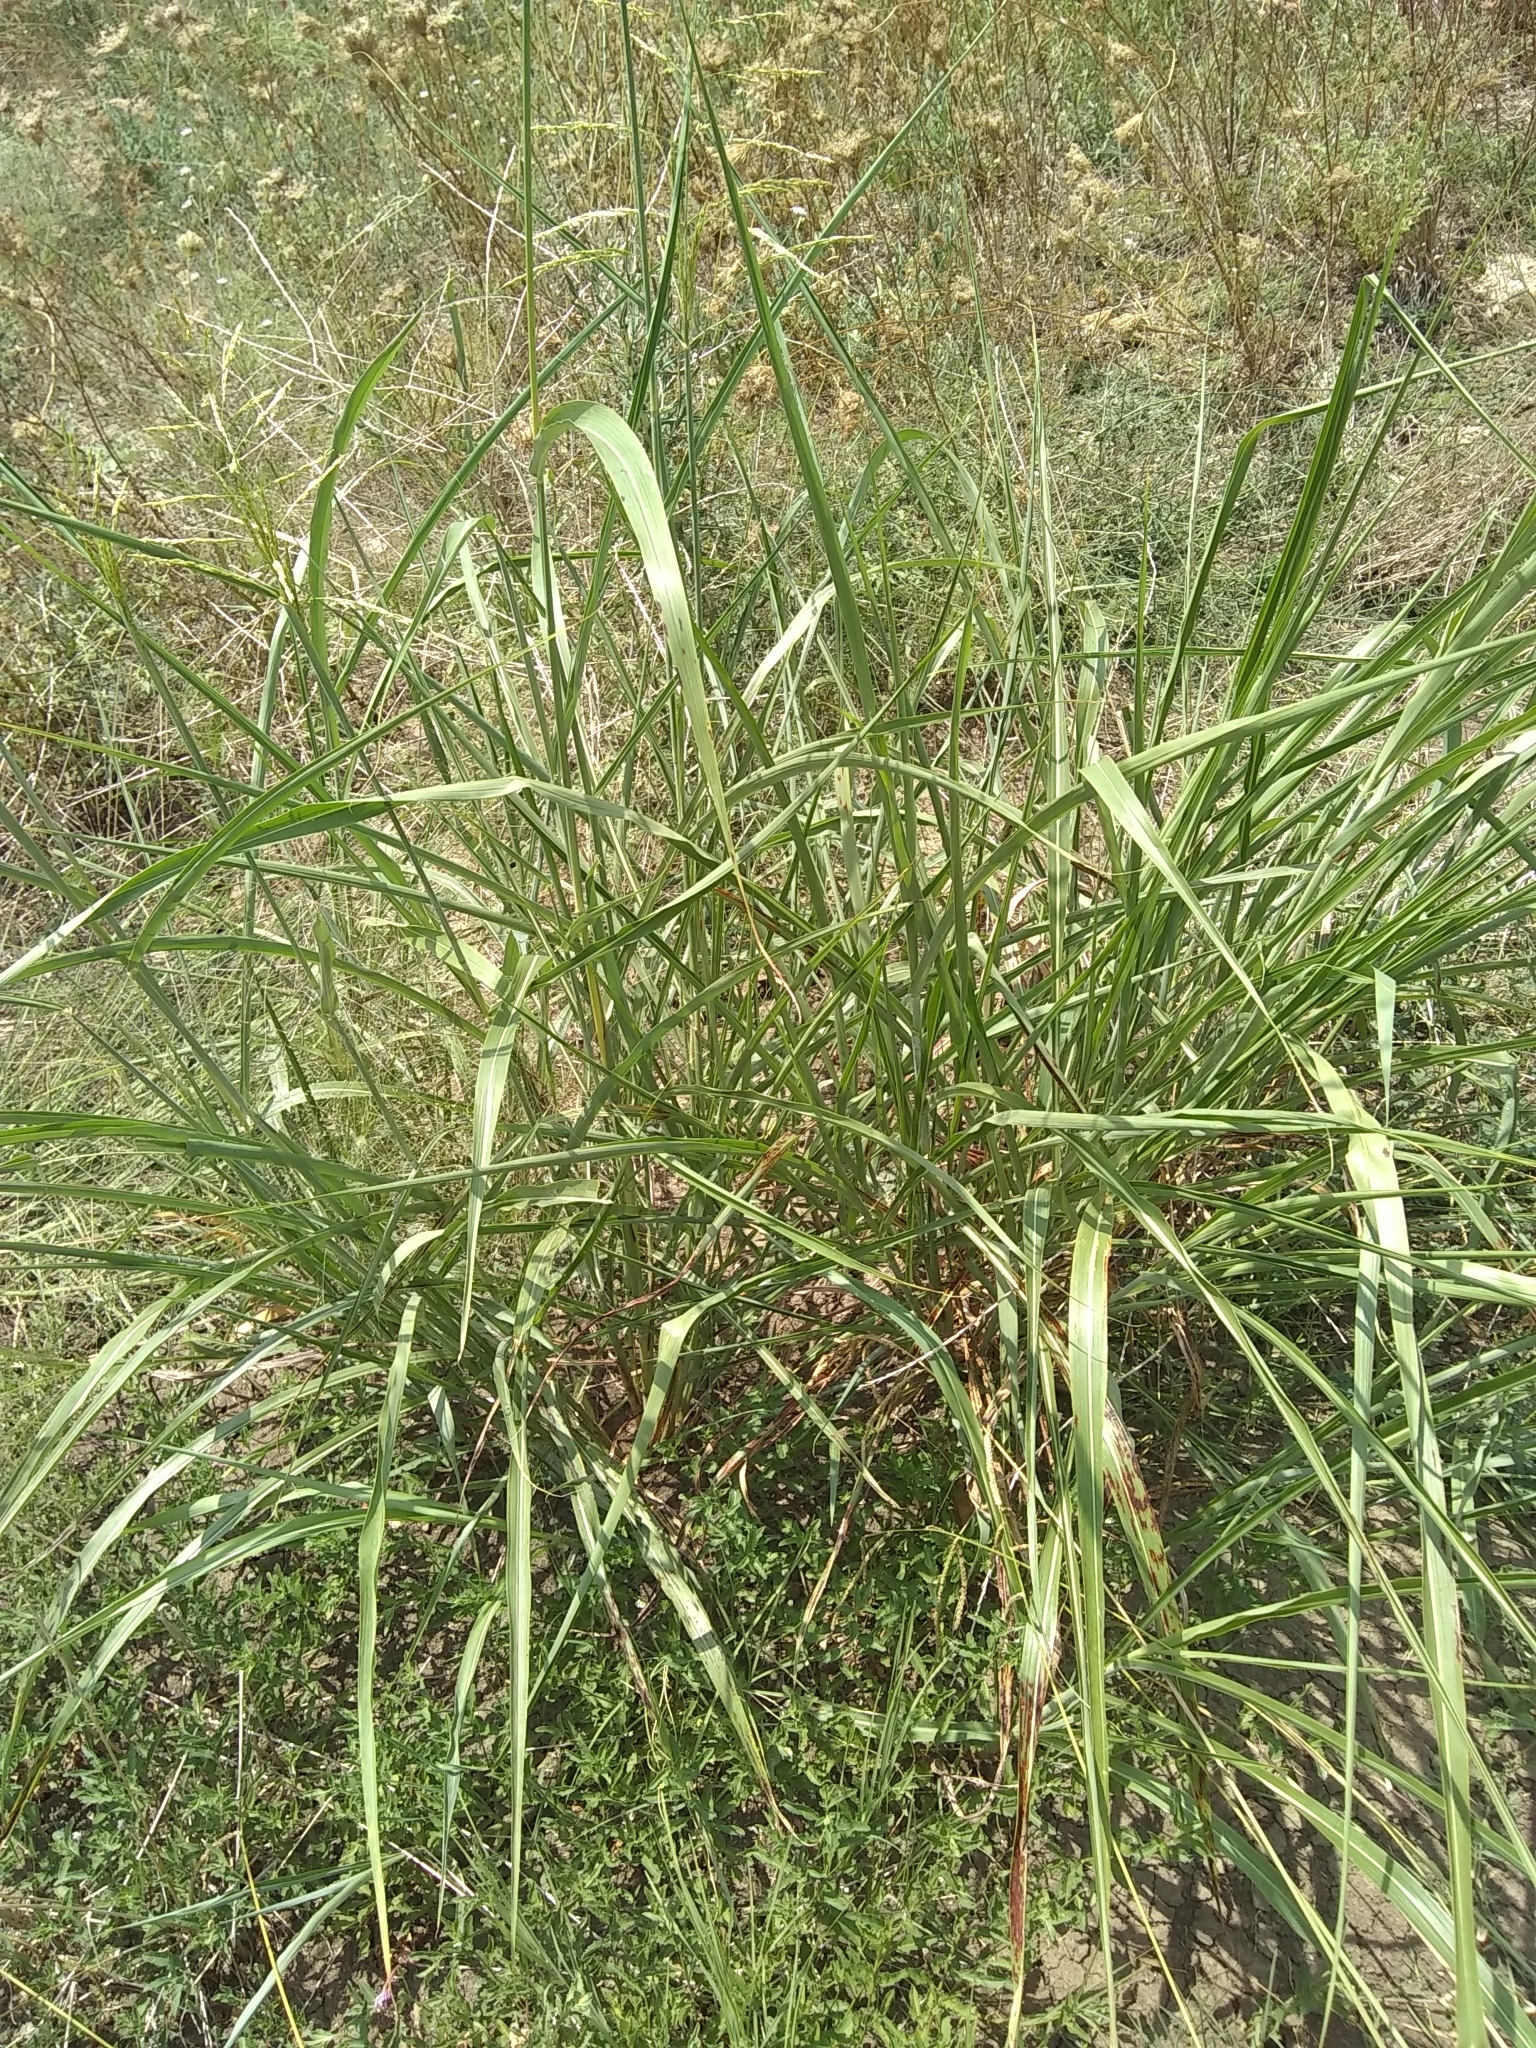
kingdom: Plantae
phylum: Tracheophyta
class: Liliopsida
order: Poales
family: Poaceae
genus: Sorghum
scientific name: Sorghum halepense
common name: Johnson-grass
